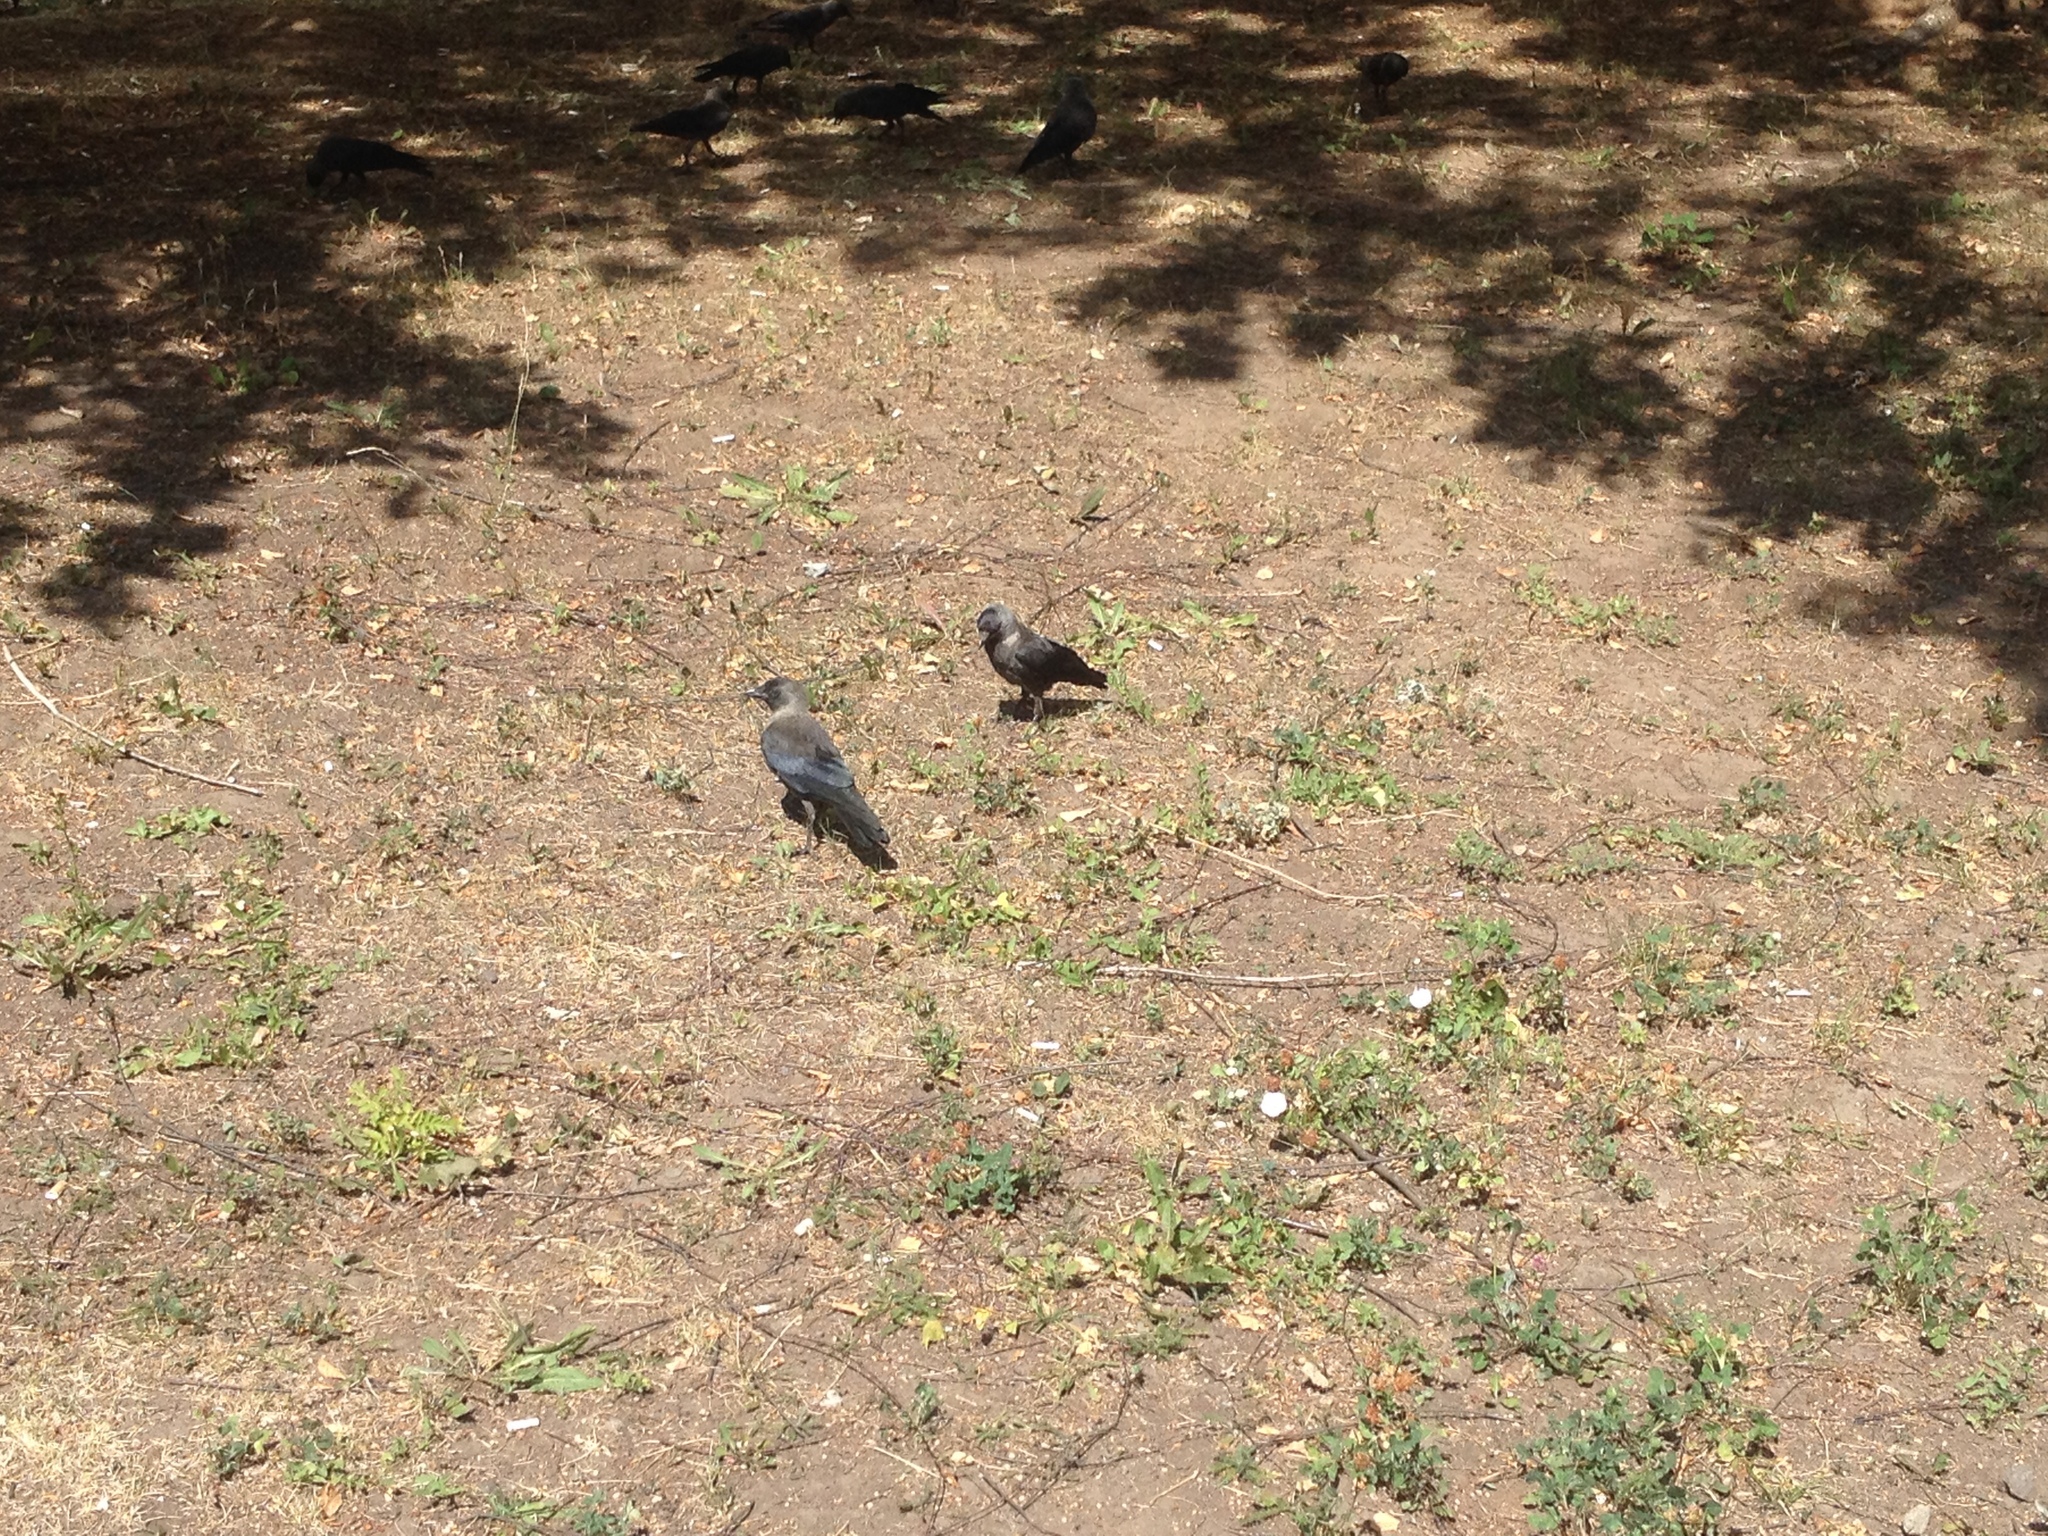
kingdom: Animalia
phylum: Chordata
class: Aves
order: Passeriformes
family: Corvidae
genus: Coloeus
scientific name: Coloeus monedula
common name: Western jackdaw
